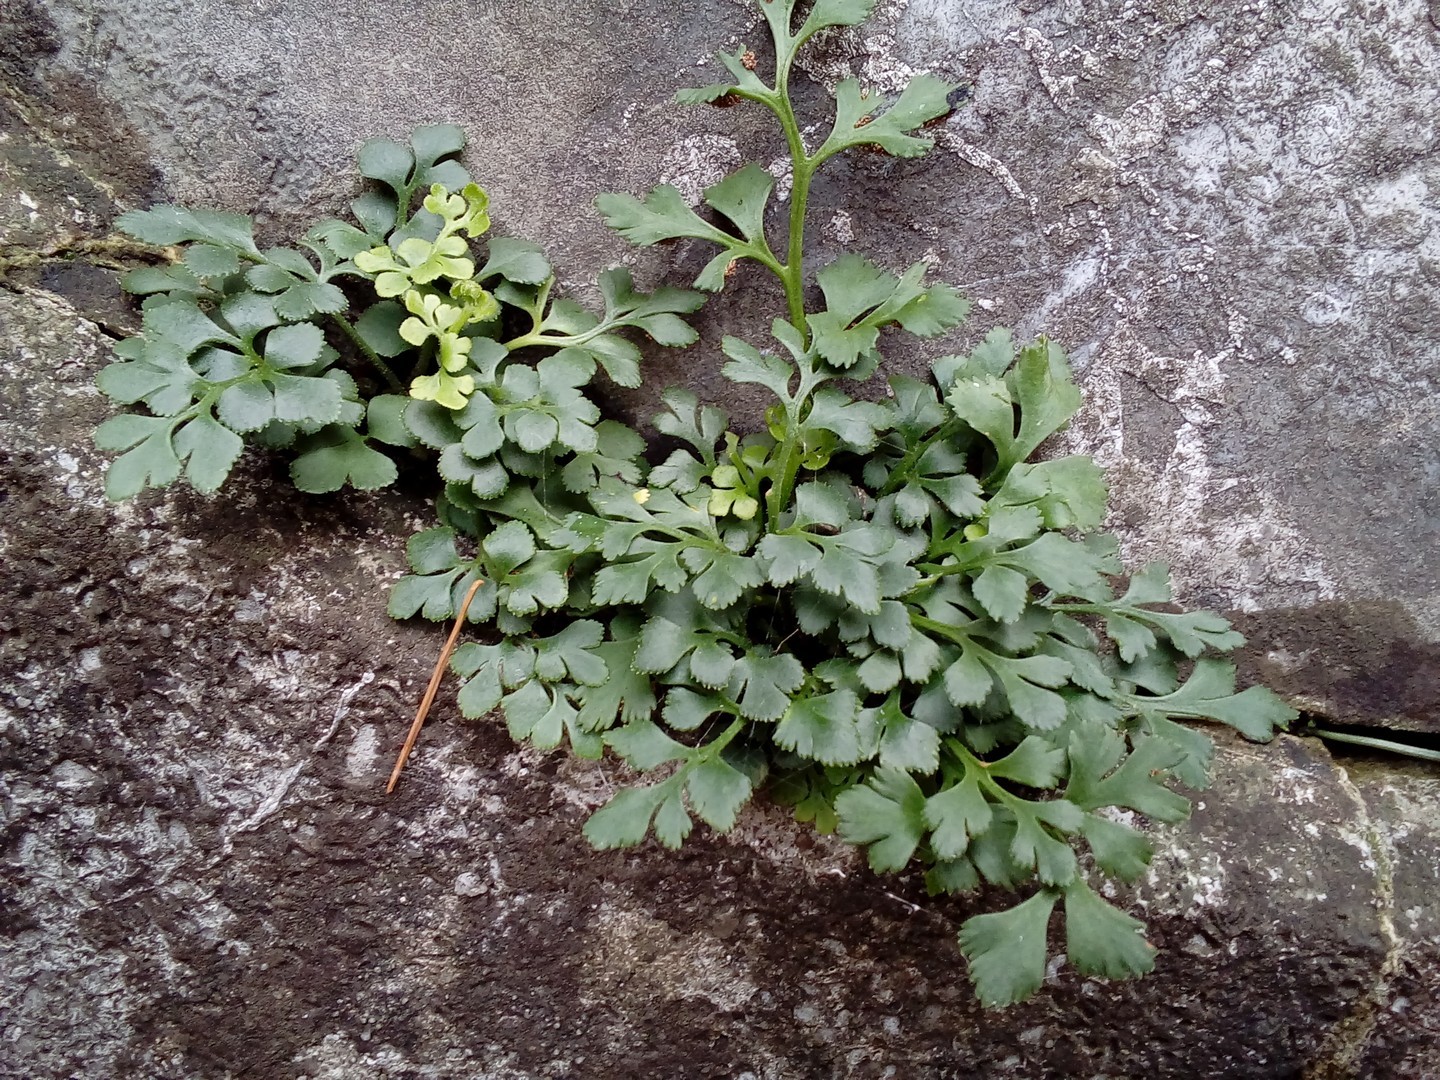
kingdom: Plantae
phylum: Tracheophyta
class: Polypodiopsida
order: Polypodiales
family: Aspleniaceae
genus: Asplenium
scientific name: Asplenium ruta-muraria
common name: Wall-rue
